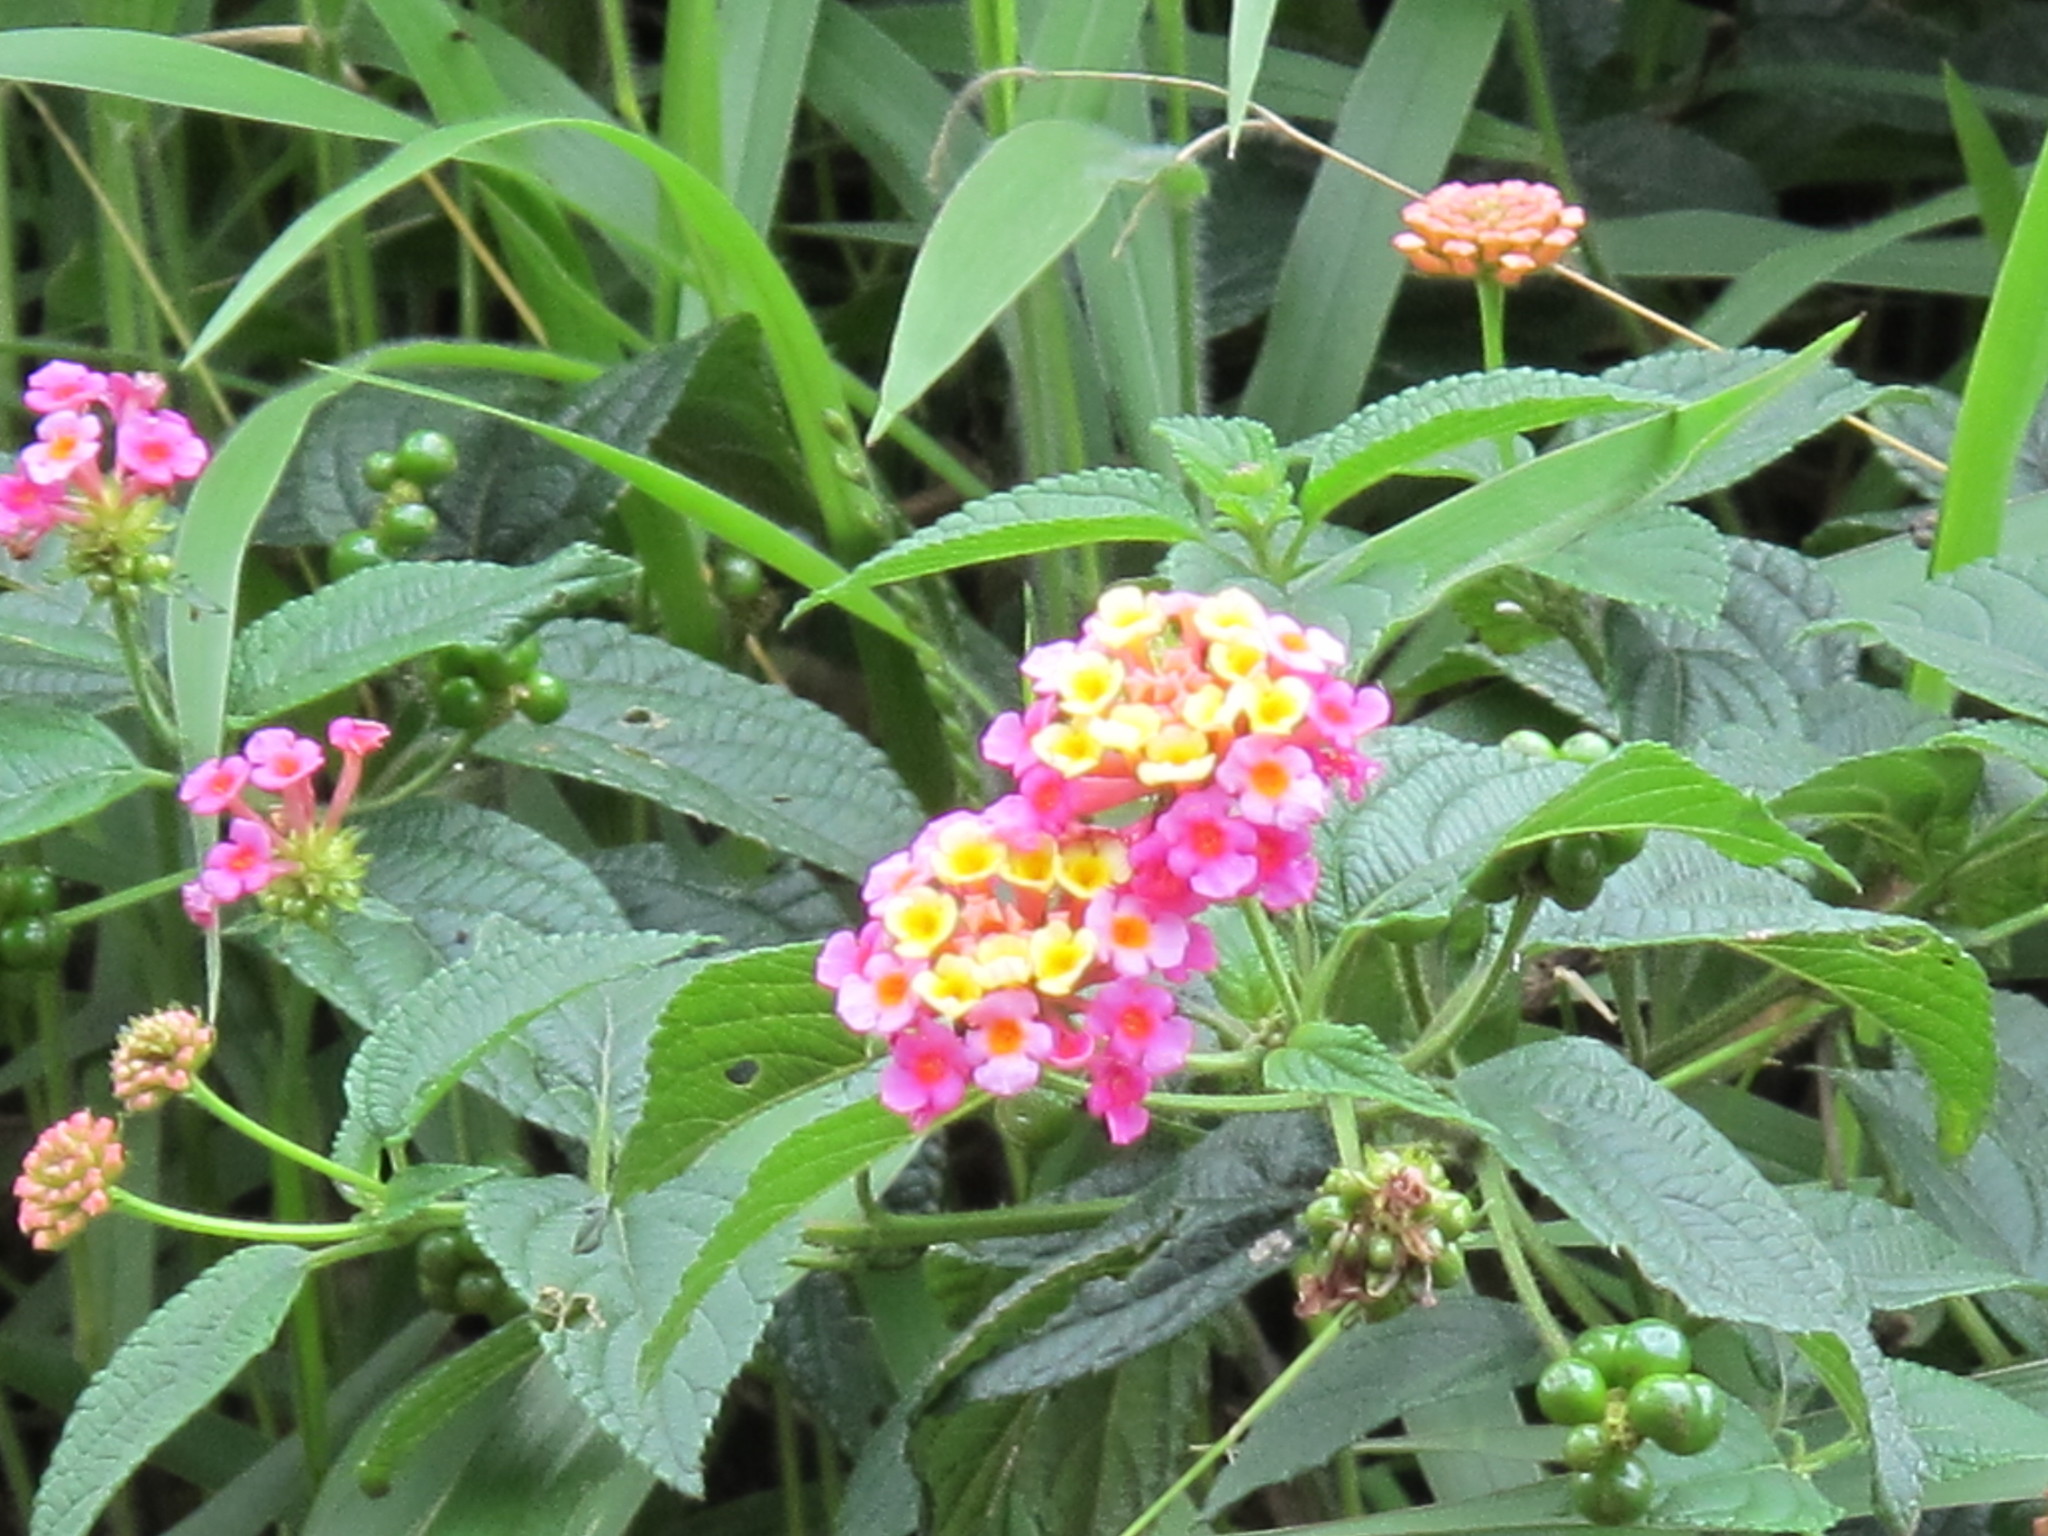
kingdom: Plantae
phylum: Tracheophyta
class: Magnoliopsida
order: Lamiales
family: Verbenaceae
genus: Lantana
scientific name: Lantana camara
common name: Lantana
